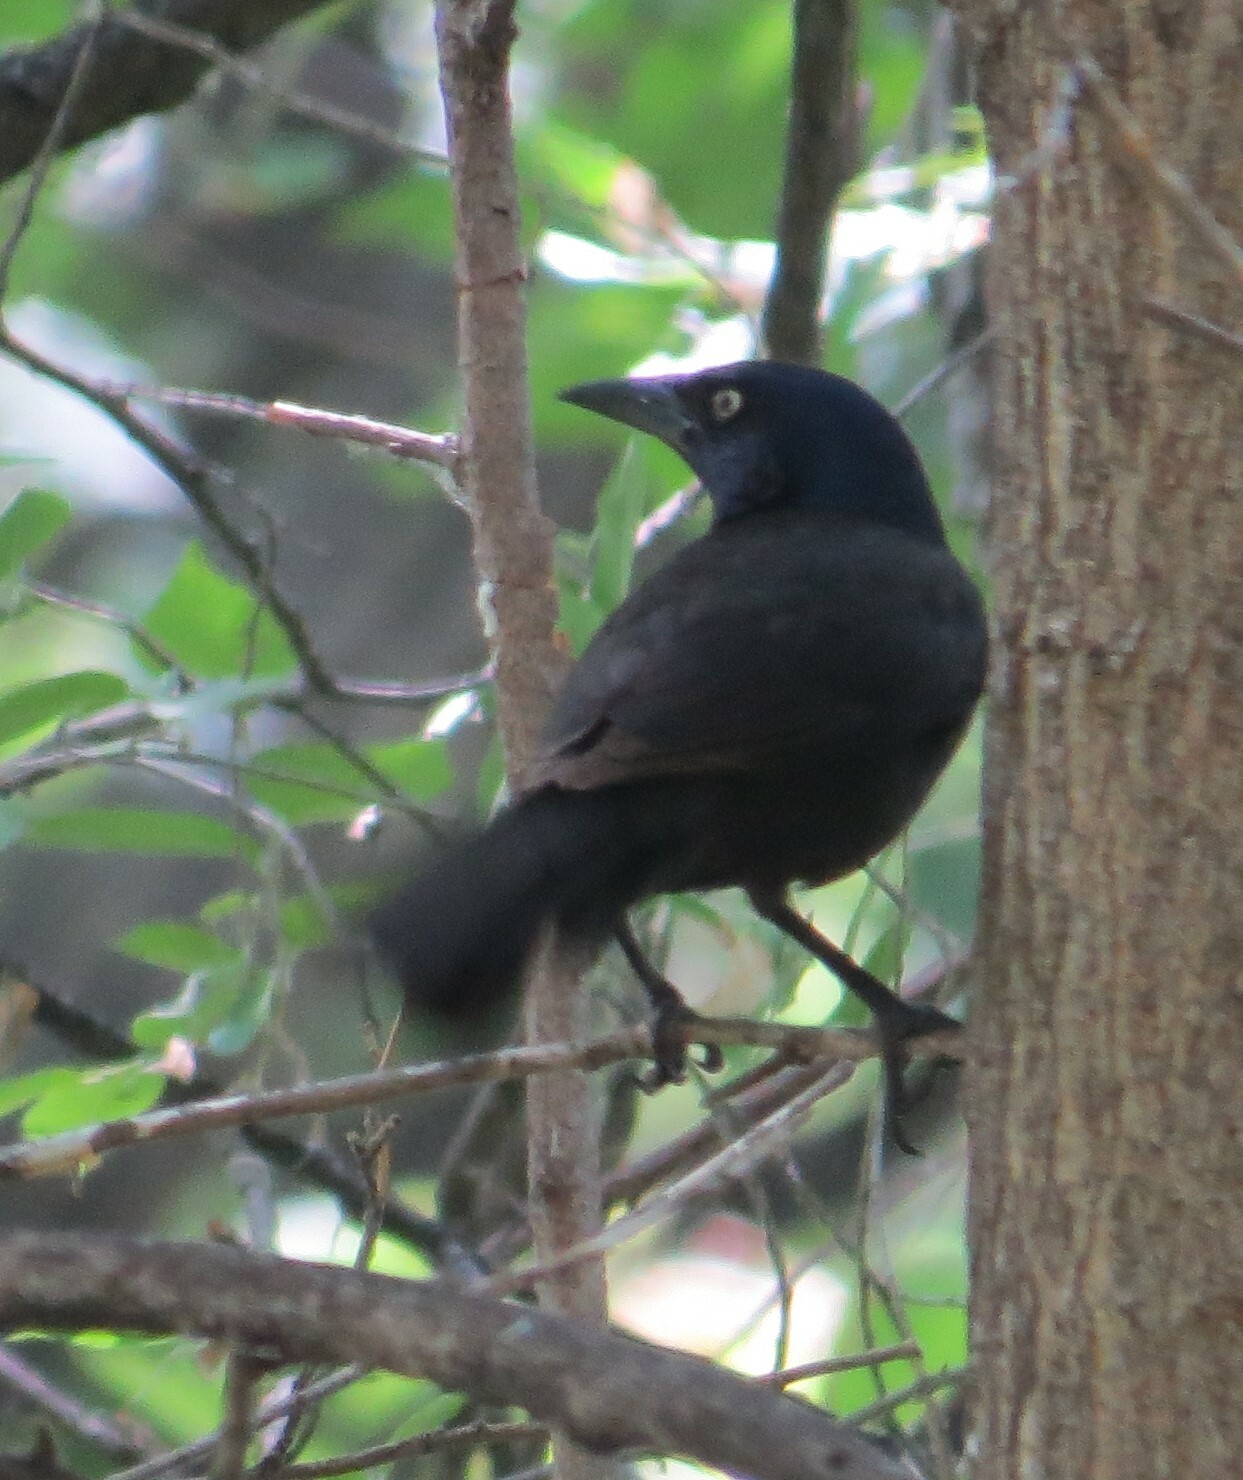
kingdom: Animalia
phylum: Chordata
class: Aves
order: Passeriformes
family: Icteridae
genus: Quiscalus
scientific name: Quiscalus quiscula
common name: Common grackle
